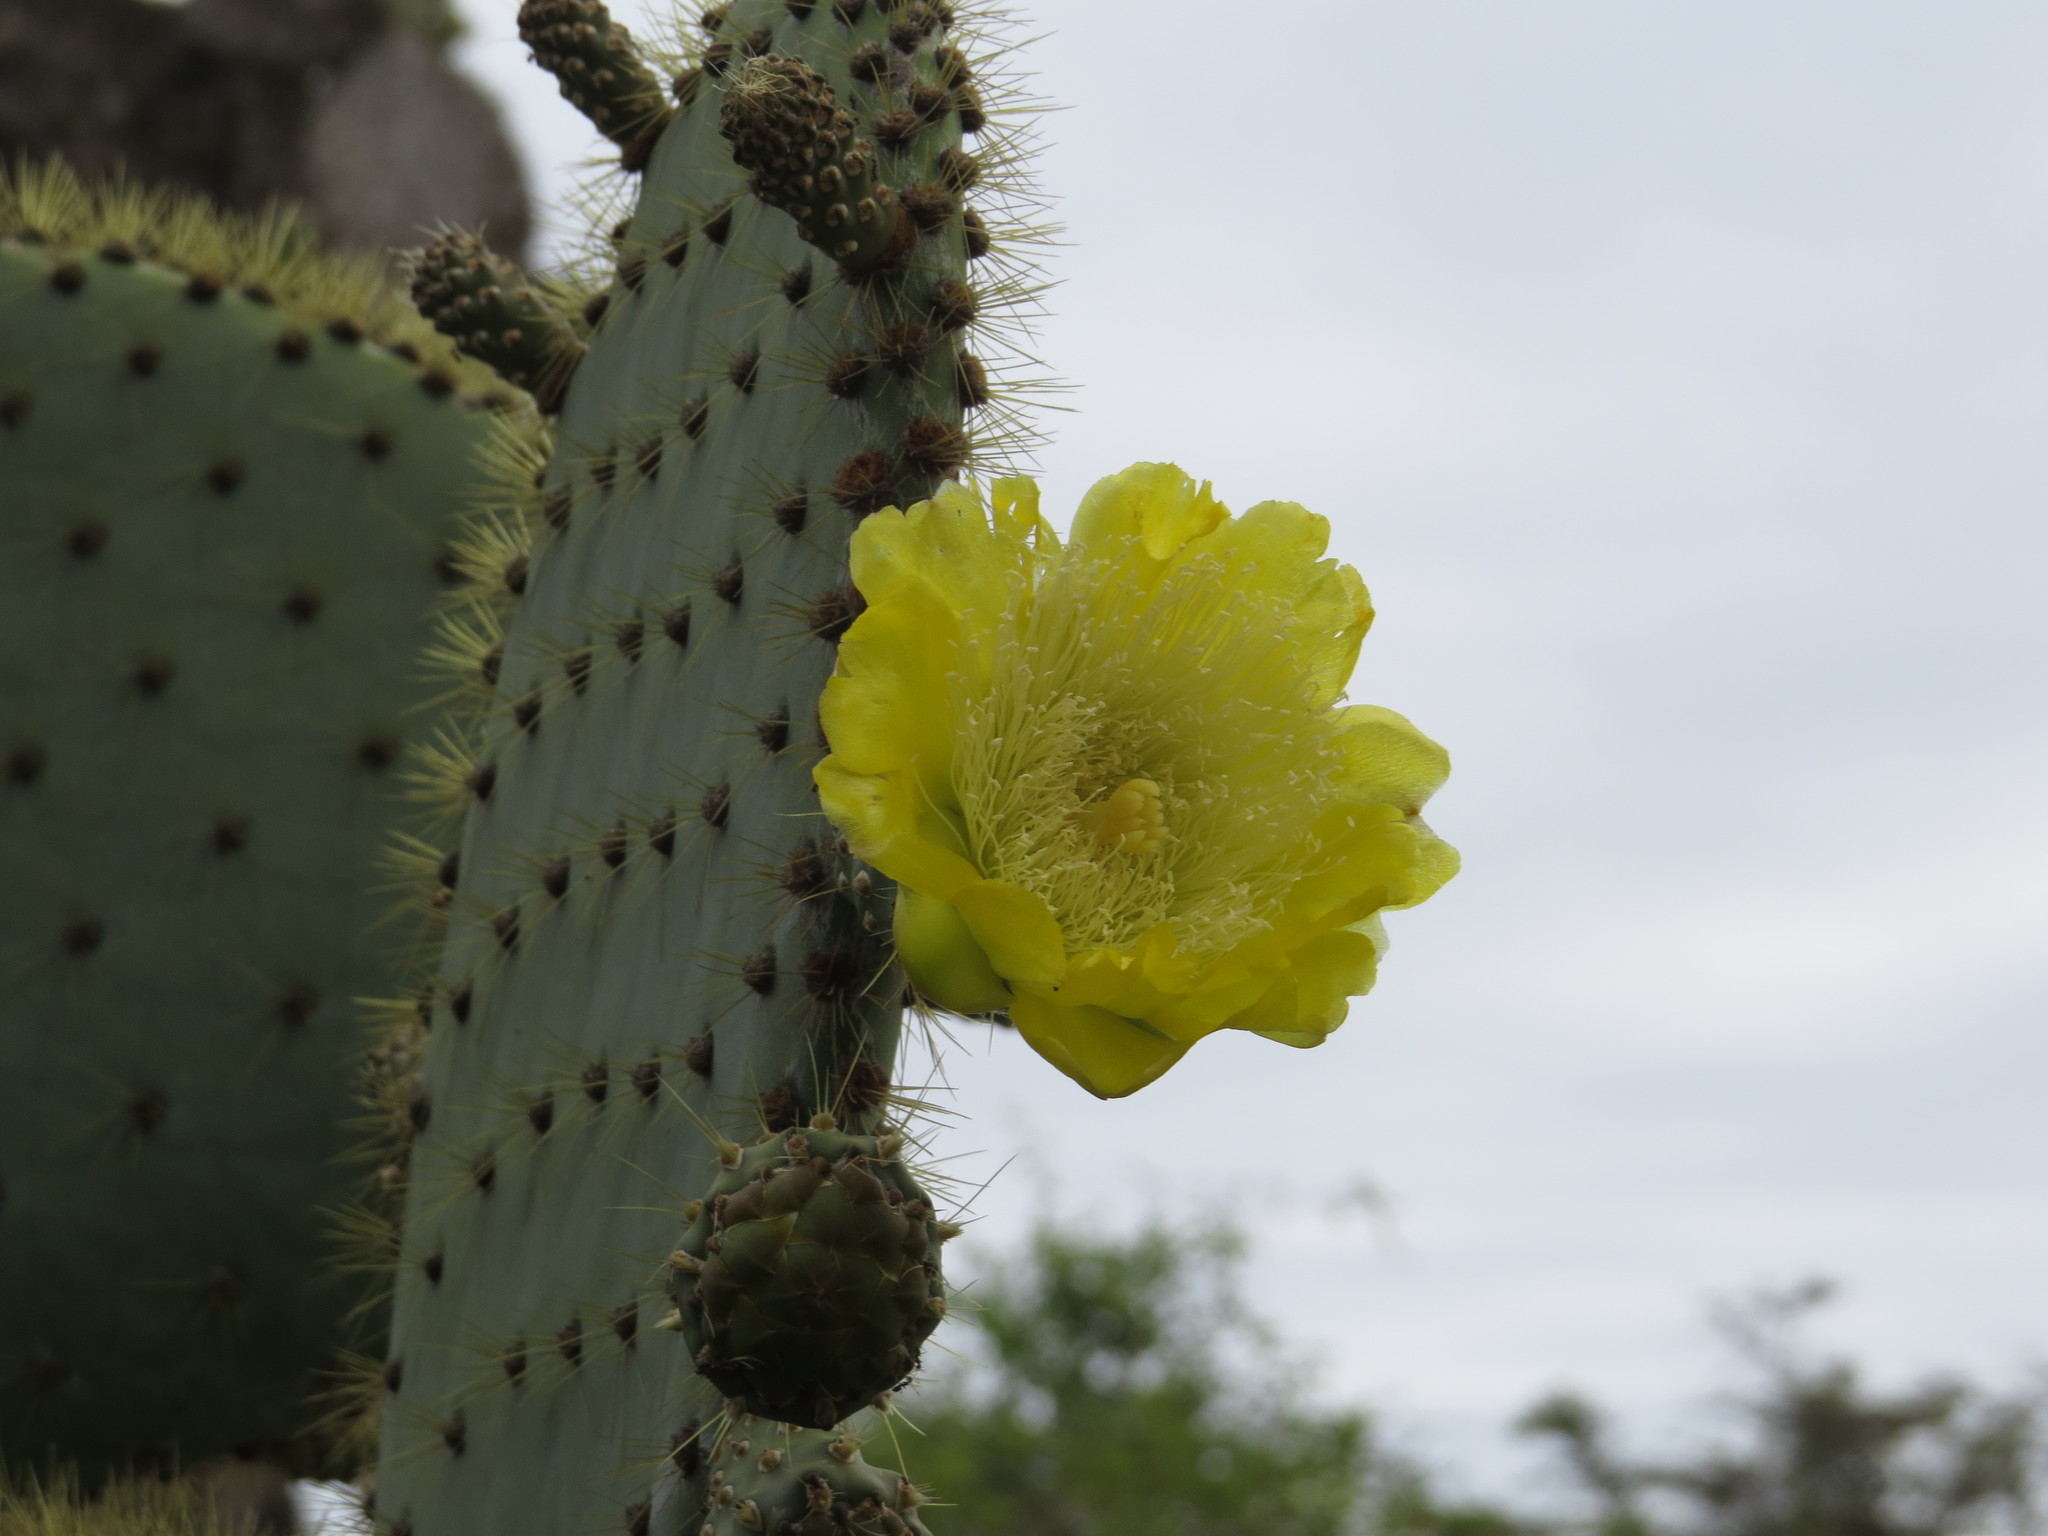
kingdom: Plantae
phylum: Tracheophyta
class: Magnoliopsida
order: Caryophyllales
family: Cactaceae
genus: Opuntia
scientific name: Opuntia galapageia
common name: Galápagos prickly pear
